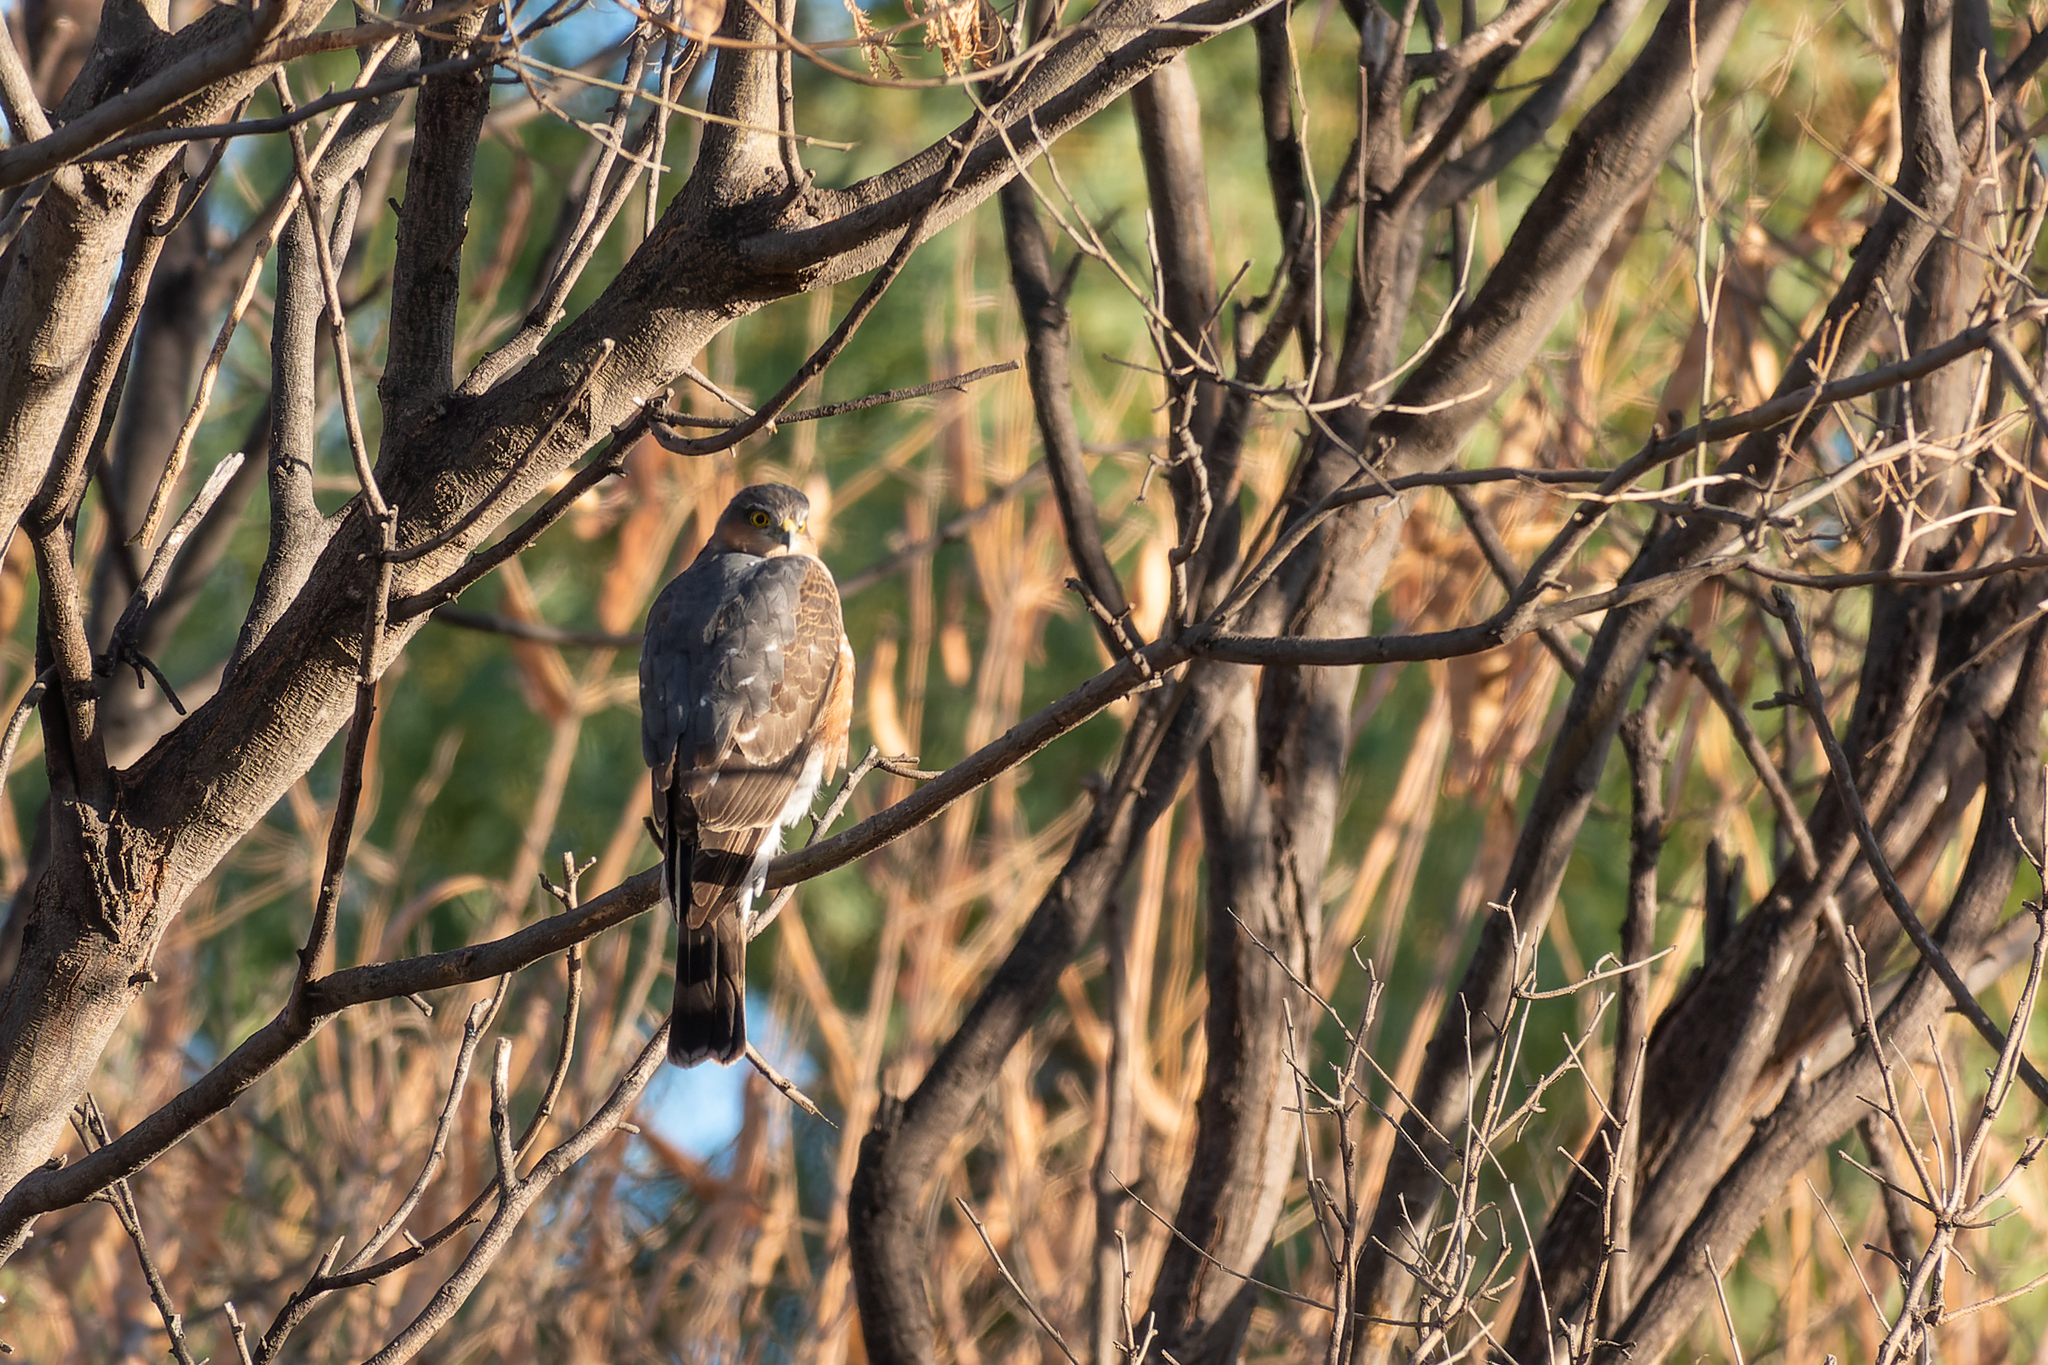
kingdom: Animalia
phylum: Chordata
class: Aves
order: Accipitriformes
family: Accipitridae
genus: Accipiter
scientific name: Accipiter striatus
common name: Sharp-shinned hawk
